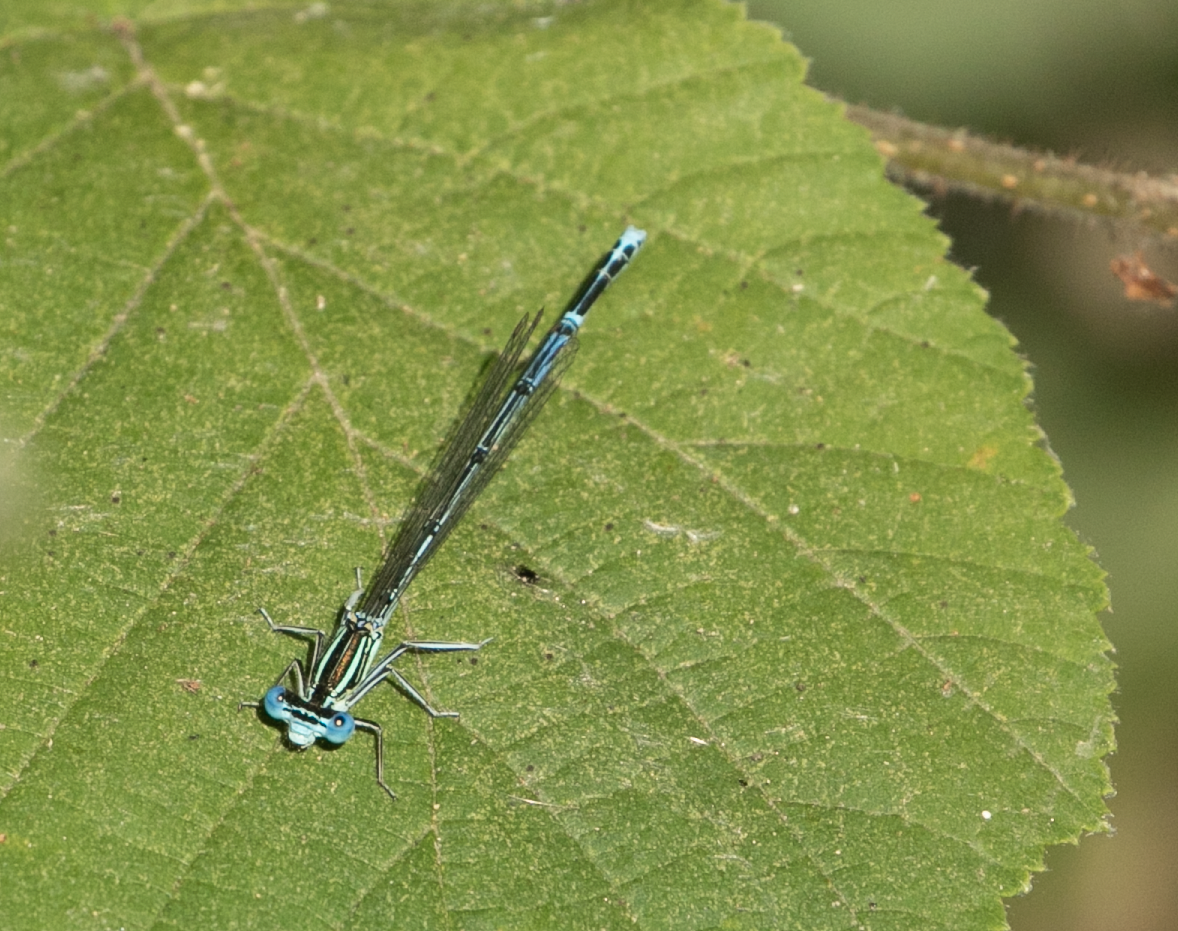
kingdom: Animalia
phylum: Arthropoda
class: Insecta
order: Odonata
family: Platycnemididae
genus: Platycnemis
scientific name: Platycnemis pennipes
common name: White-legged damselfly
